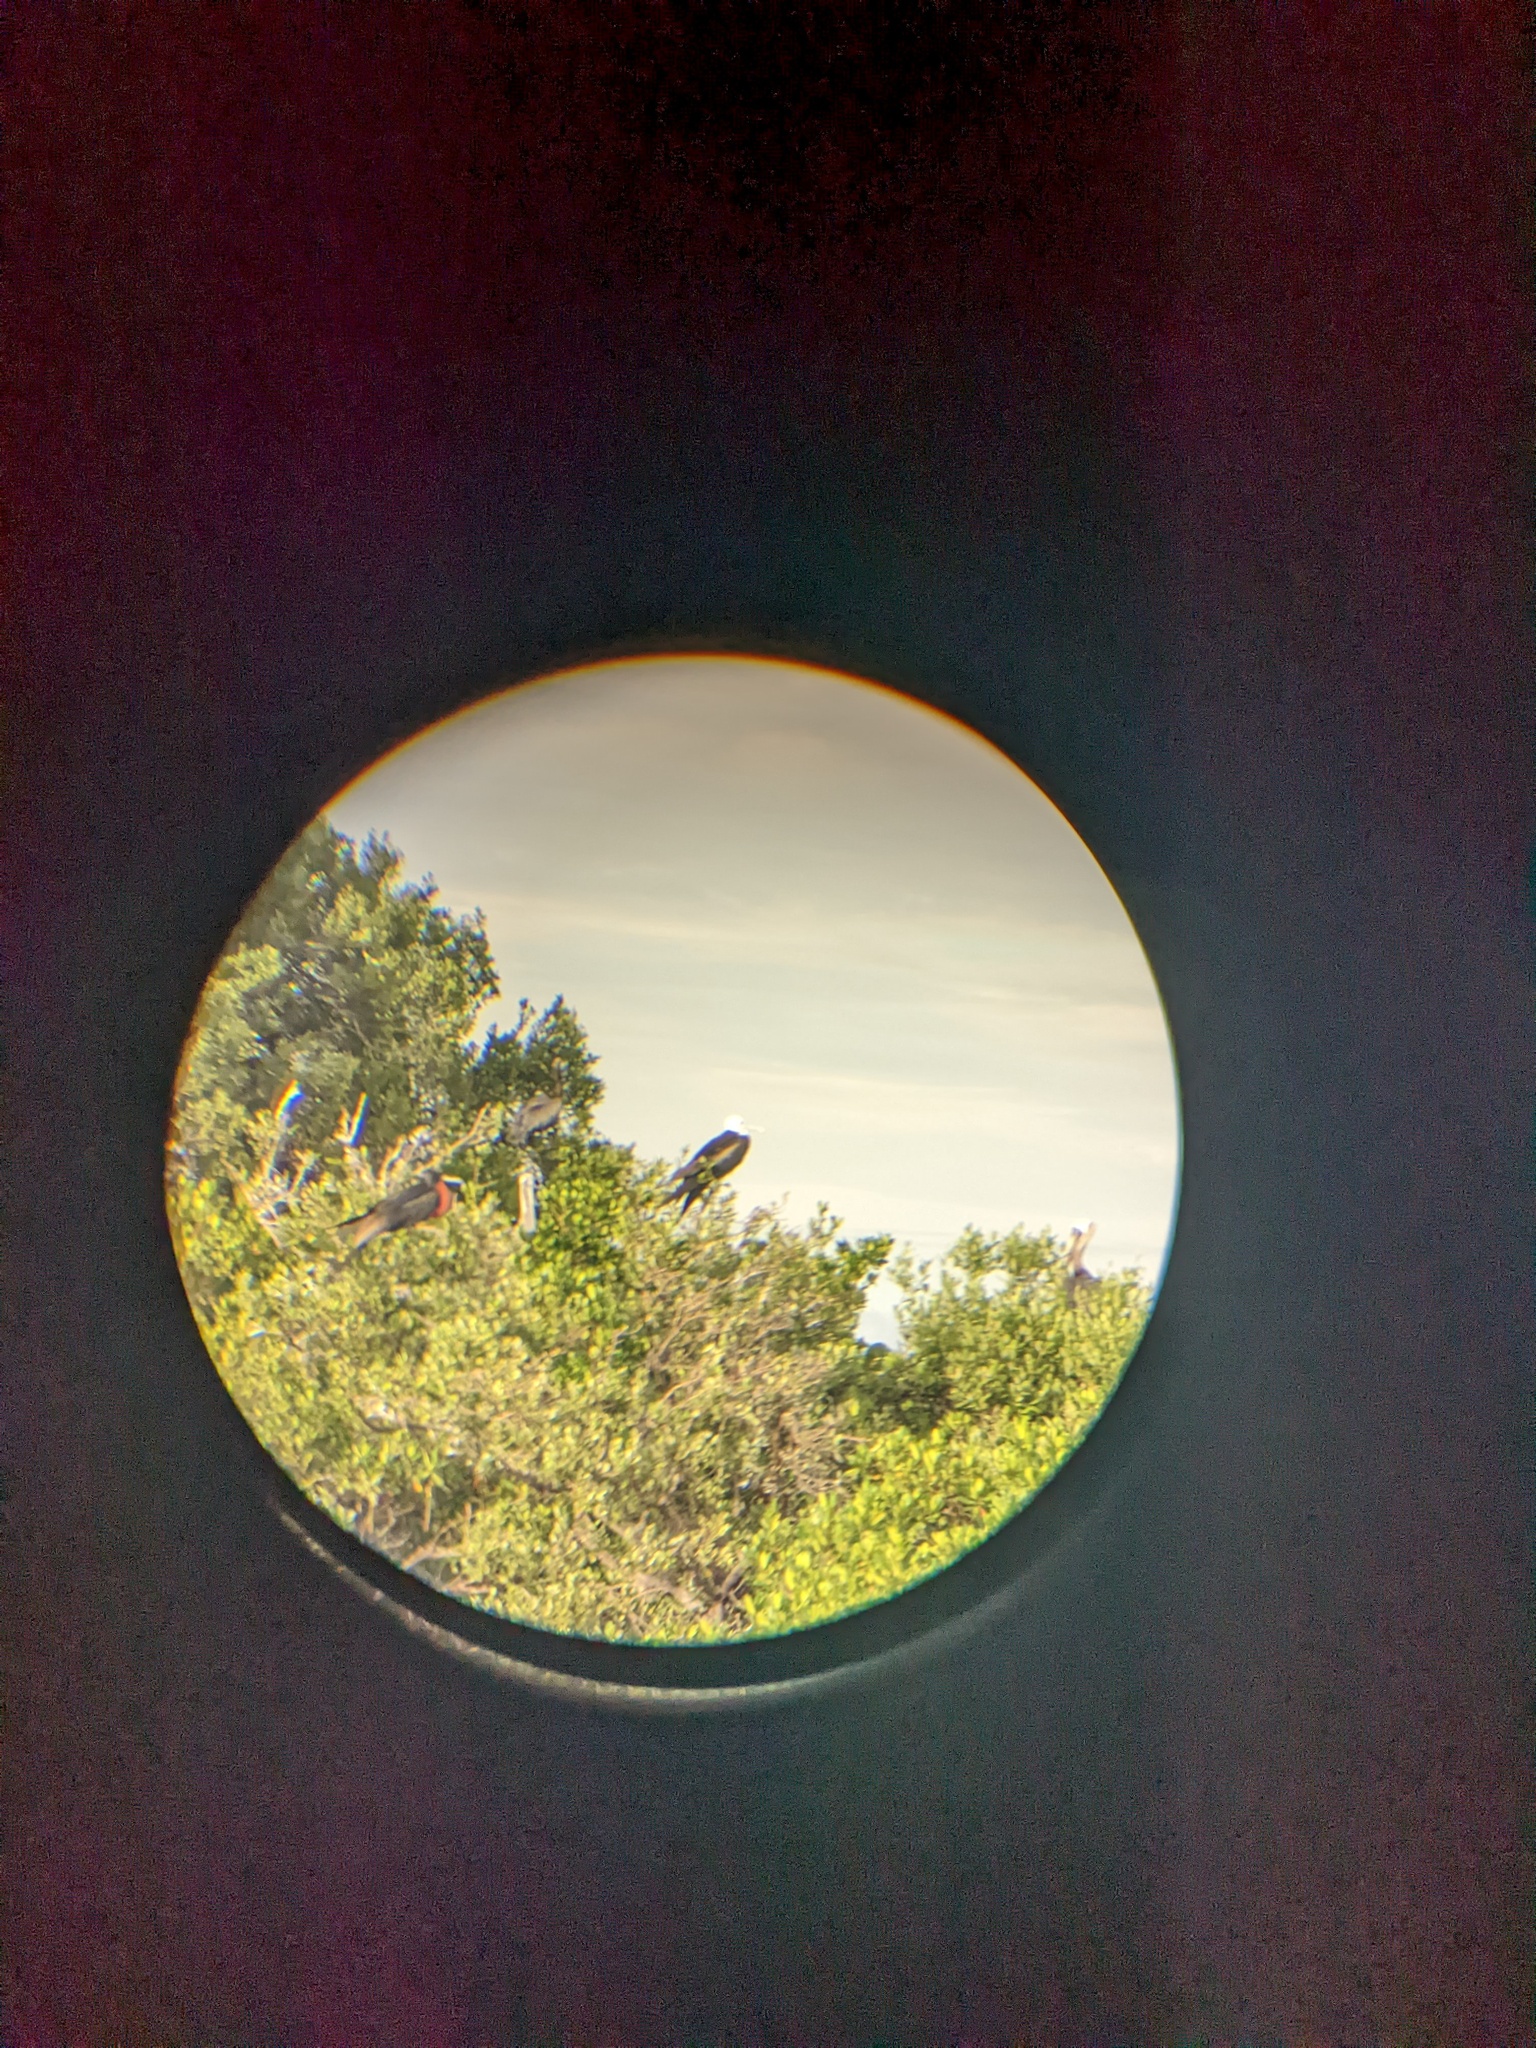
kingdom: Animalia
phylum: Chordata
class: Aves
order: Suliformes
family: Fregatidae
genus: Fregata
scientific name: Fregata magnificens
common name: Magnificent frigatebird
